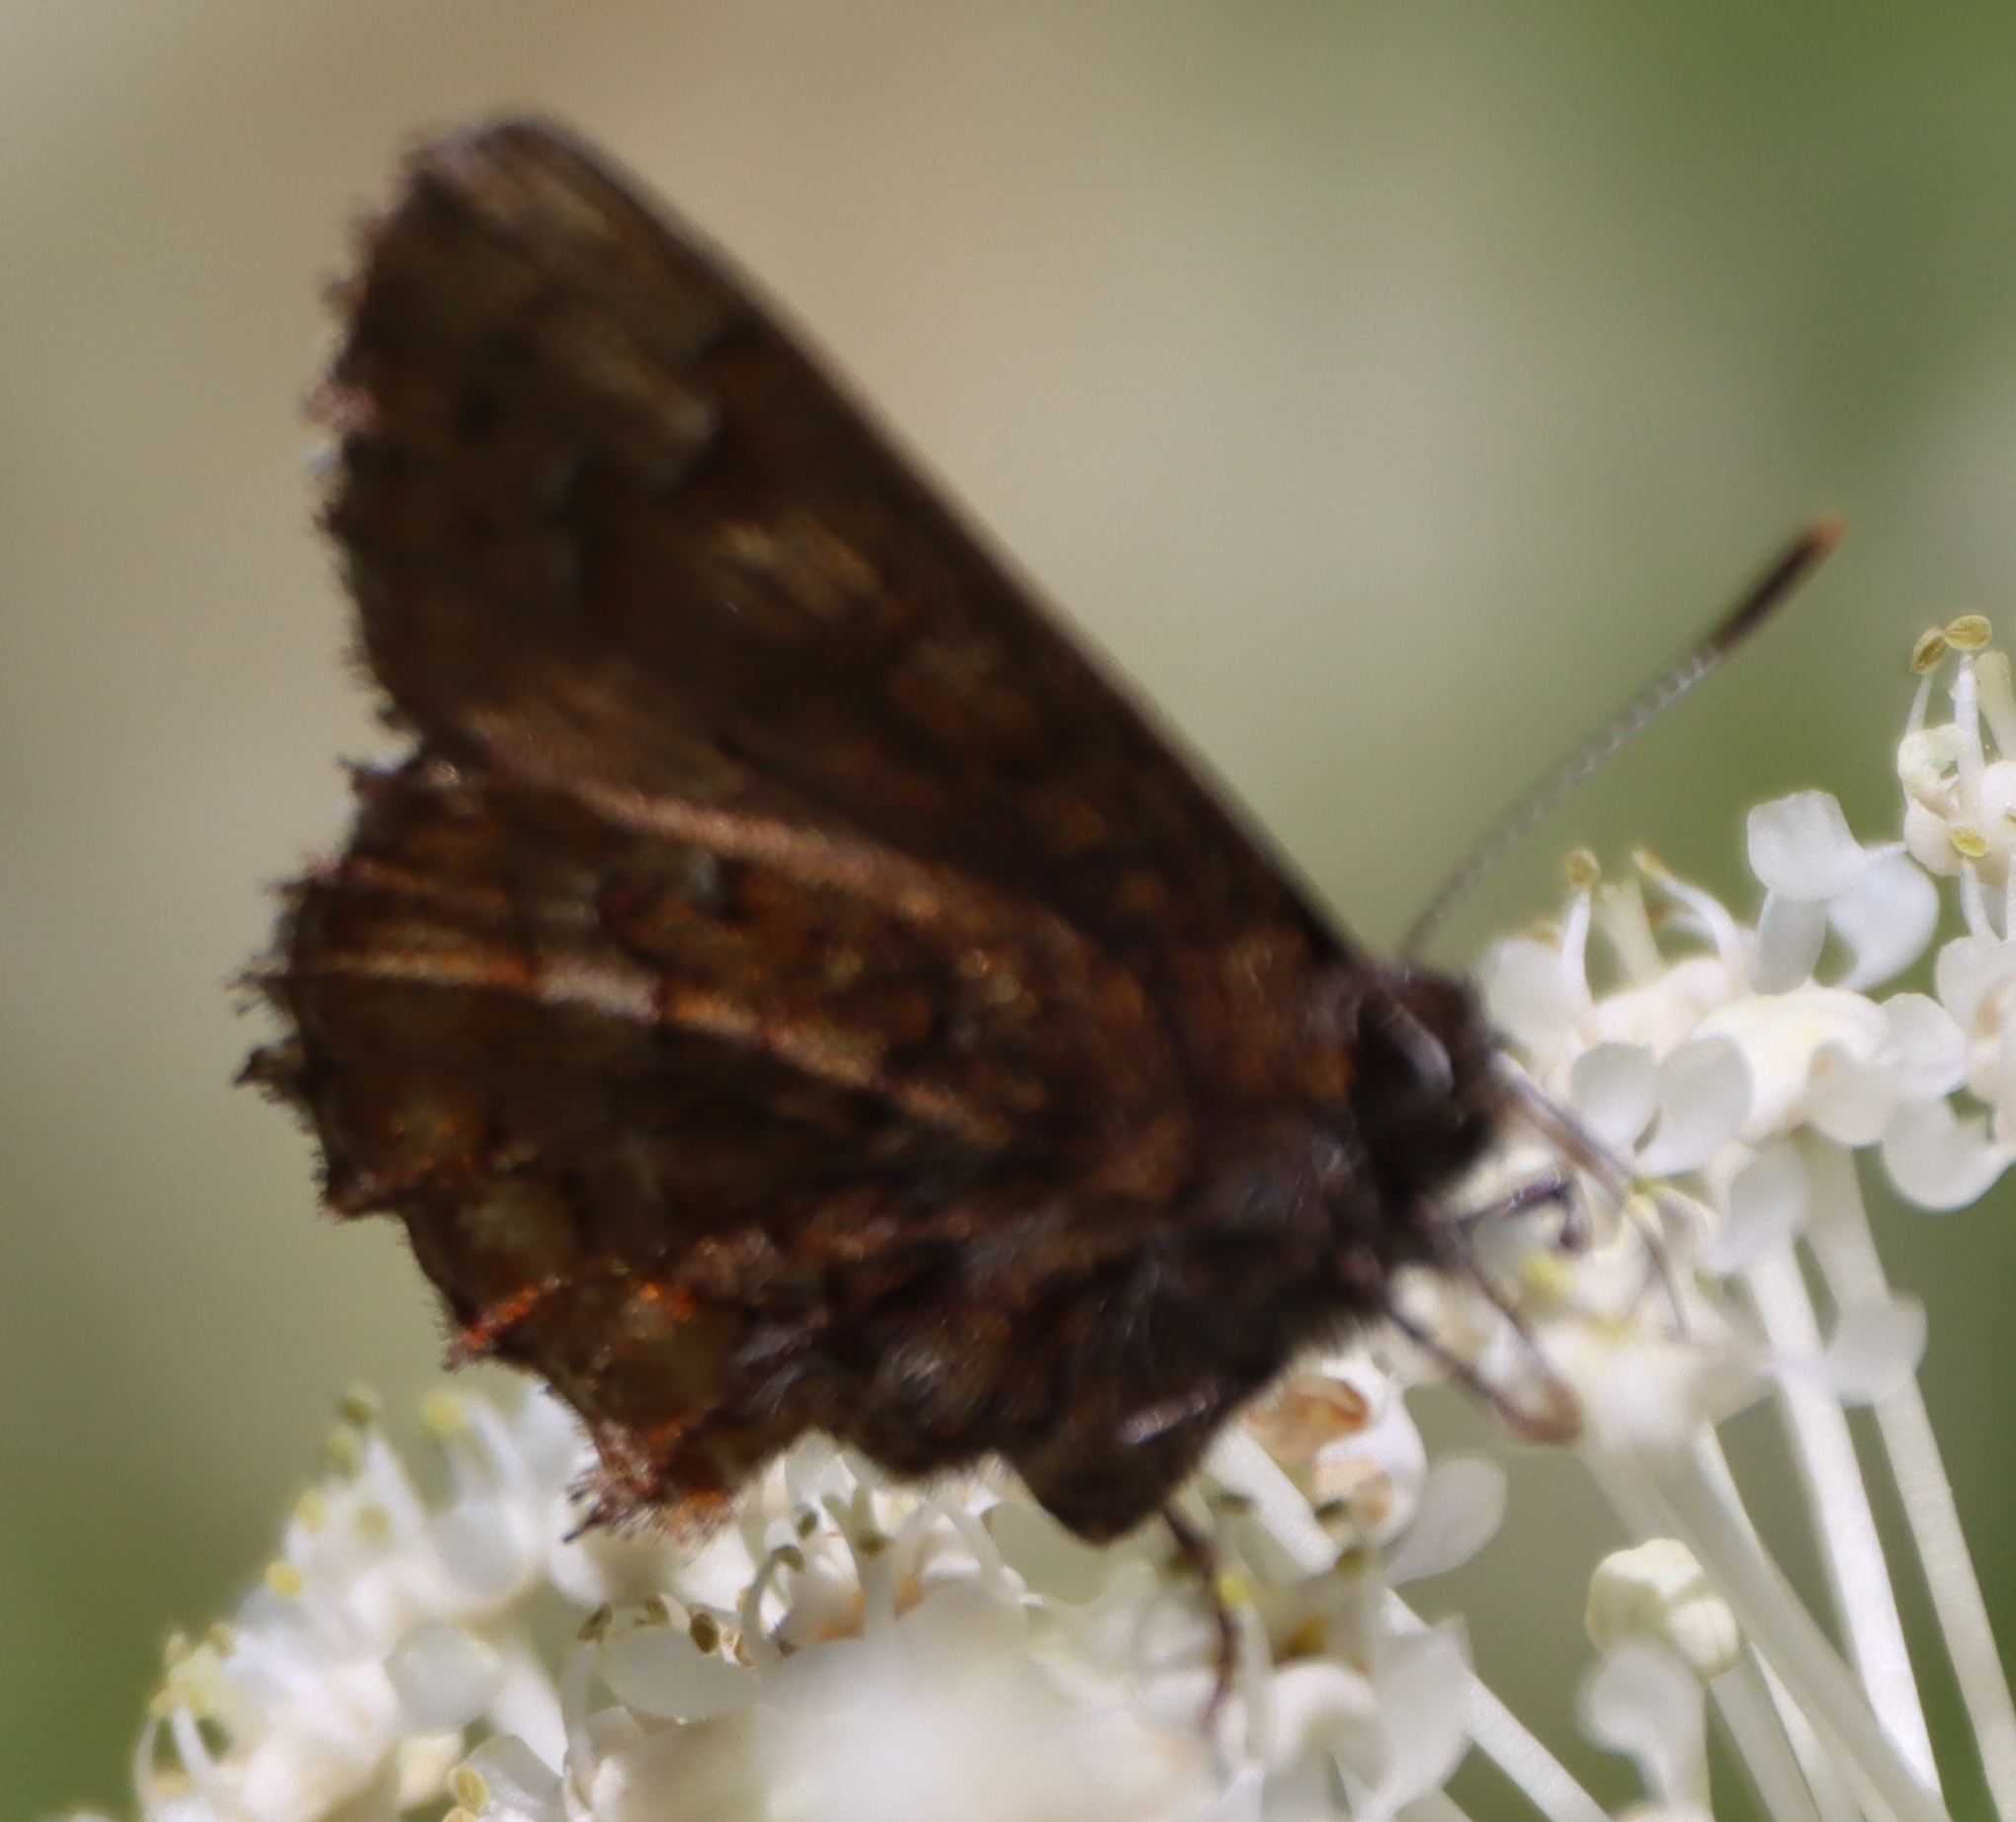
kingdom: Animalia
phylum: Arthropoda
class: Insecta
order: Lepidoptera
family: Lycaenidae
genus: Incisalia
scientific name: Incisalia niphon
